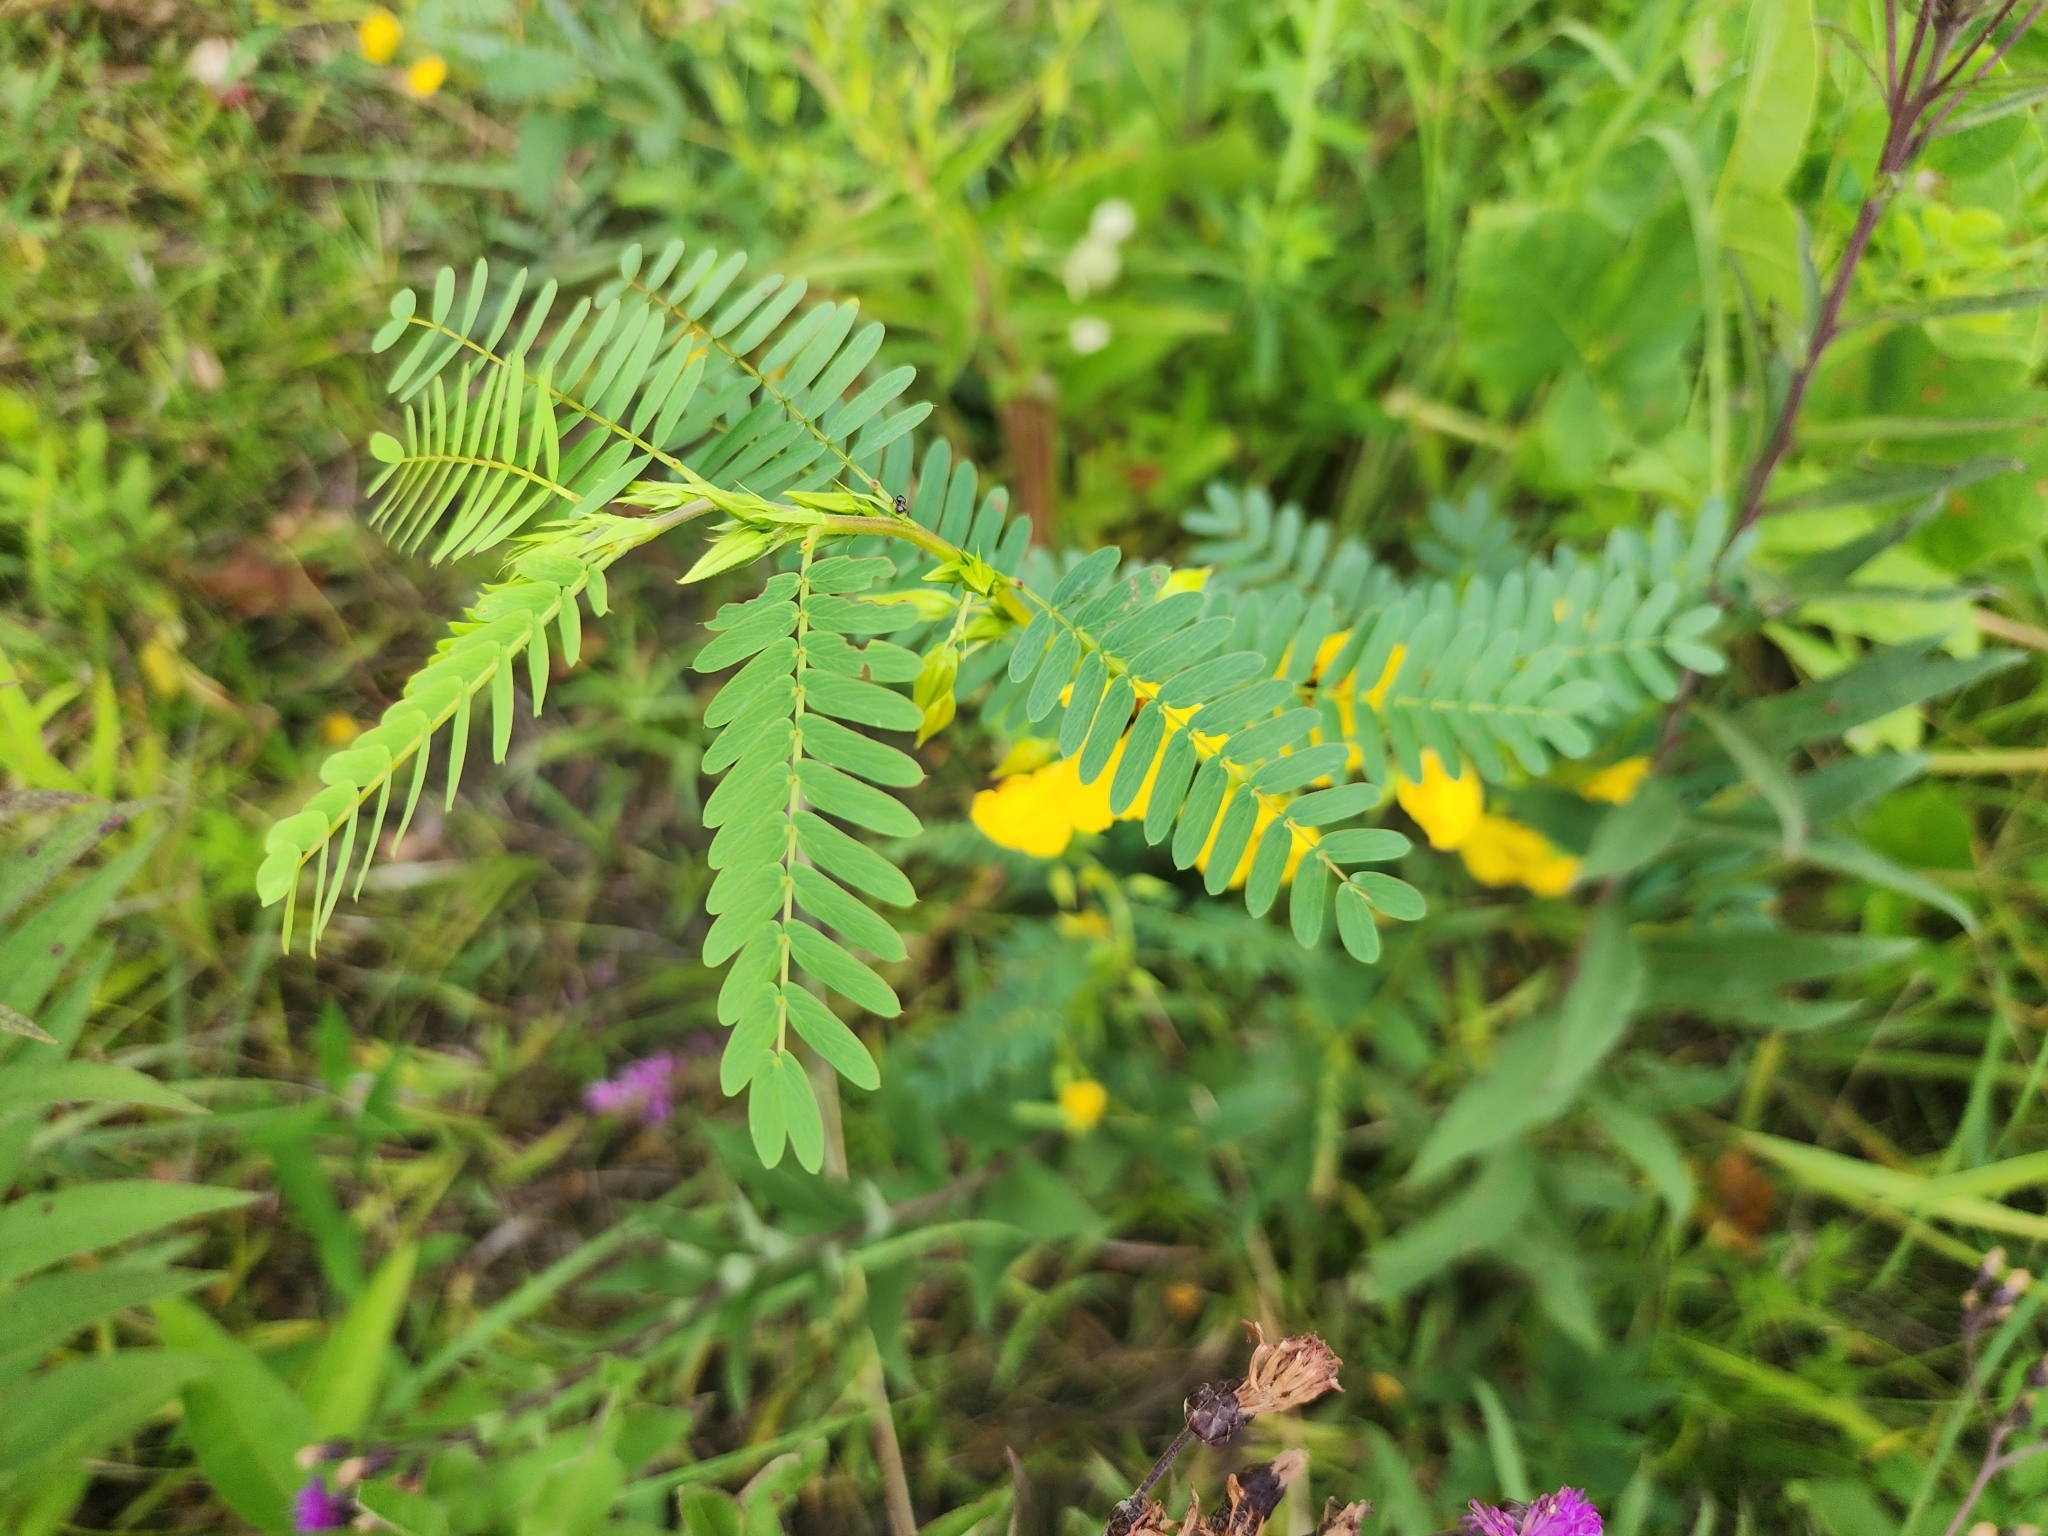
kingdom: Plantae
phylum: Tracheophyta
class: Magnoliopsida
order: Fabales
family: Fabaceae
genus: Chamaecrista
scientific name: Chamaecrista fasciculata
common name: Golden cassia
